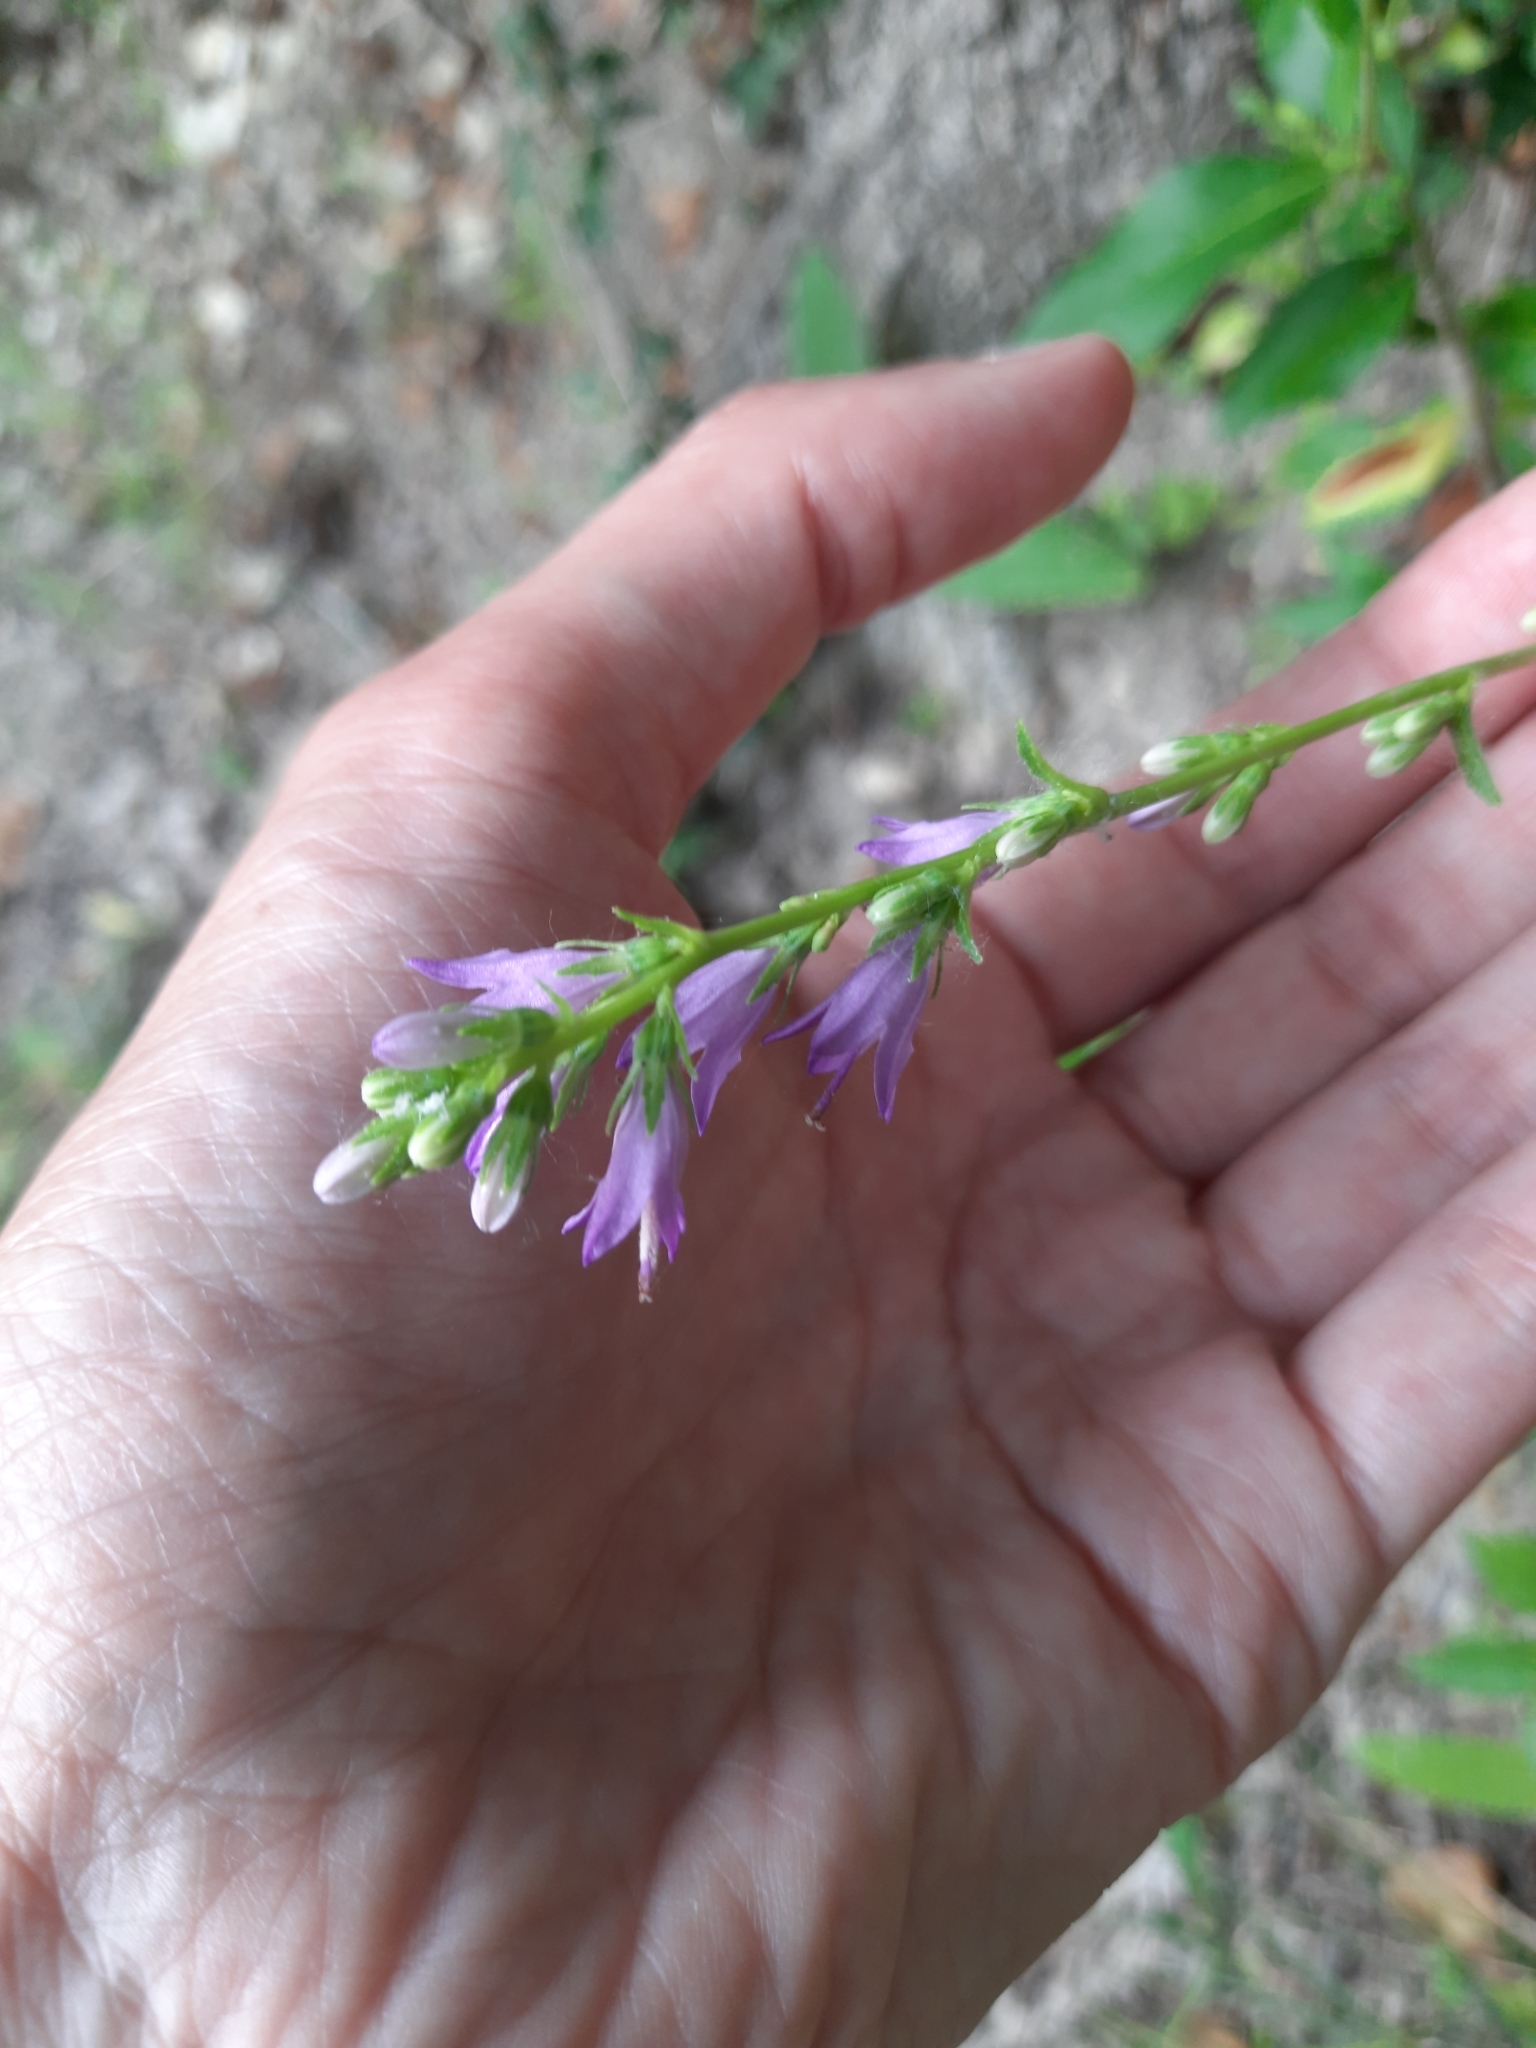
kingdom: Plantae
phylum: Tracheophyta
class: Magnoliopsida
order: Asterales
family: Campanulaceae
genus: Campanula
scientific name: Campanula bononiensis
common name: Pale bellflower
